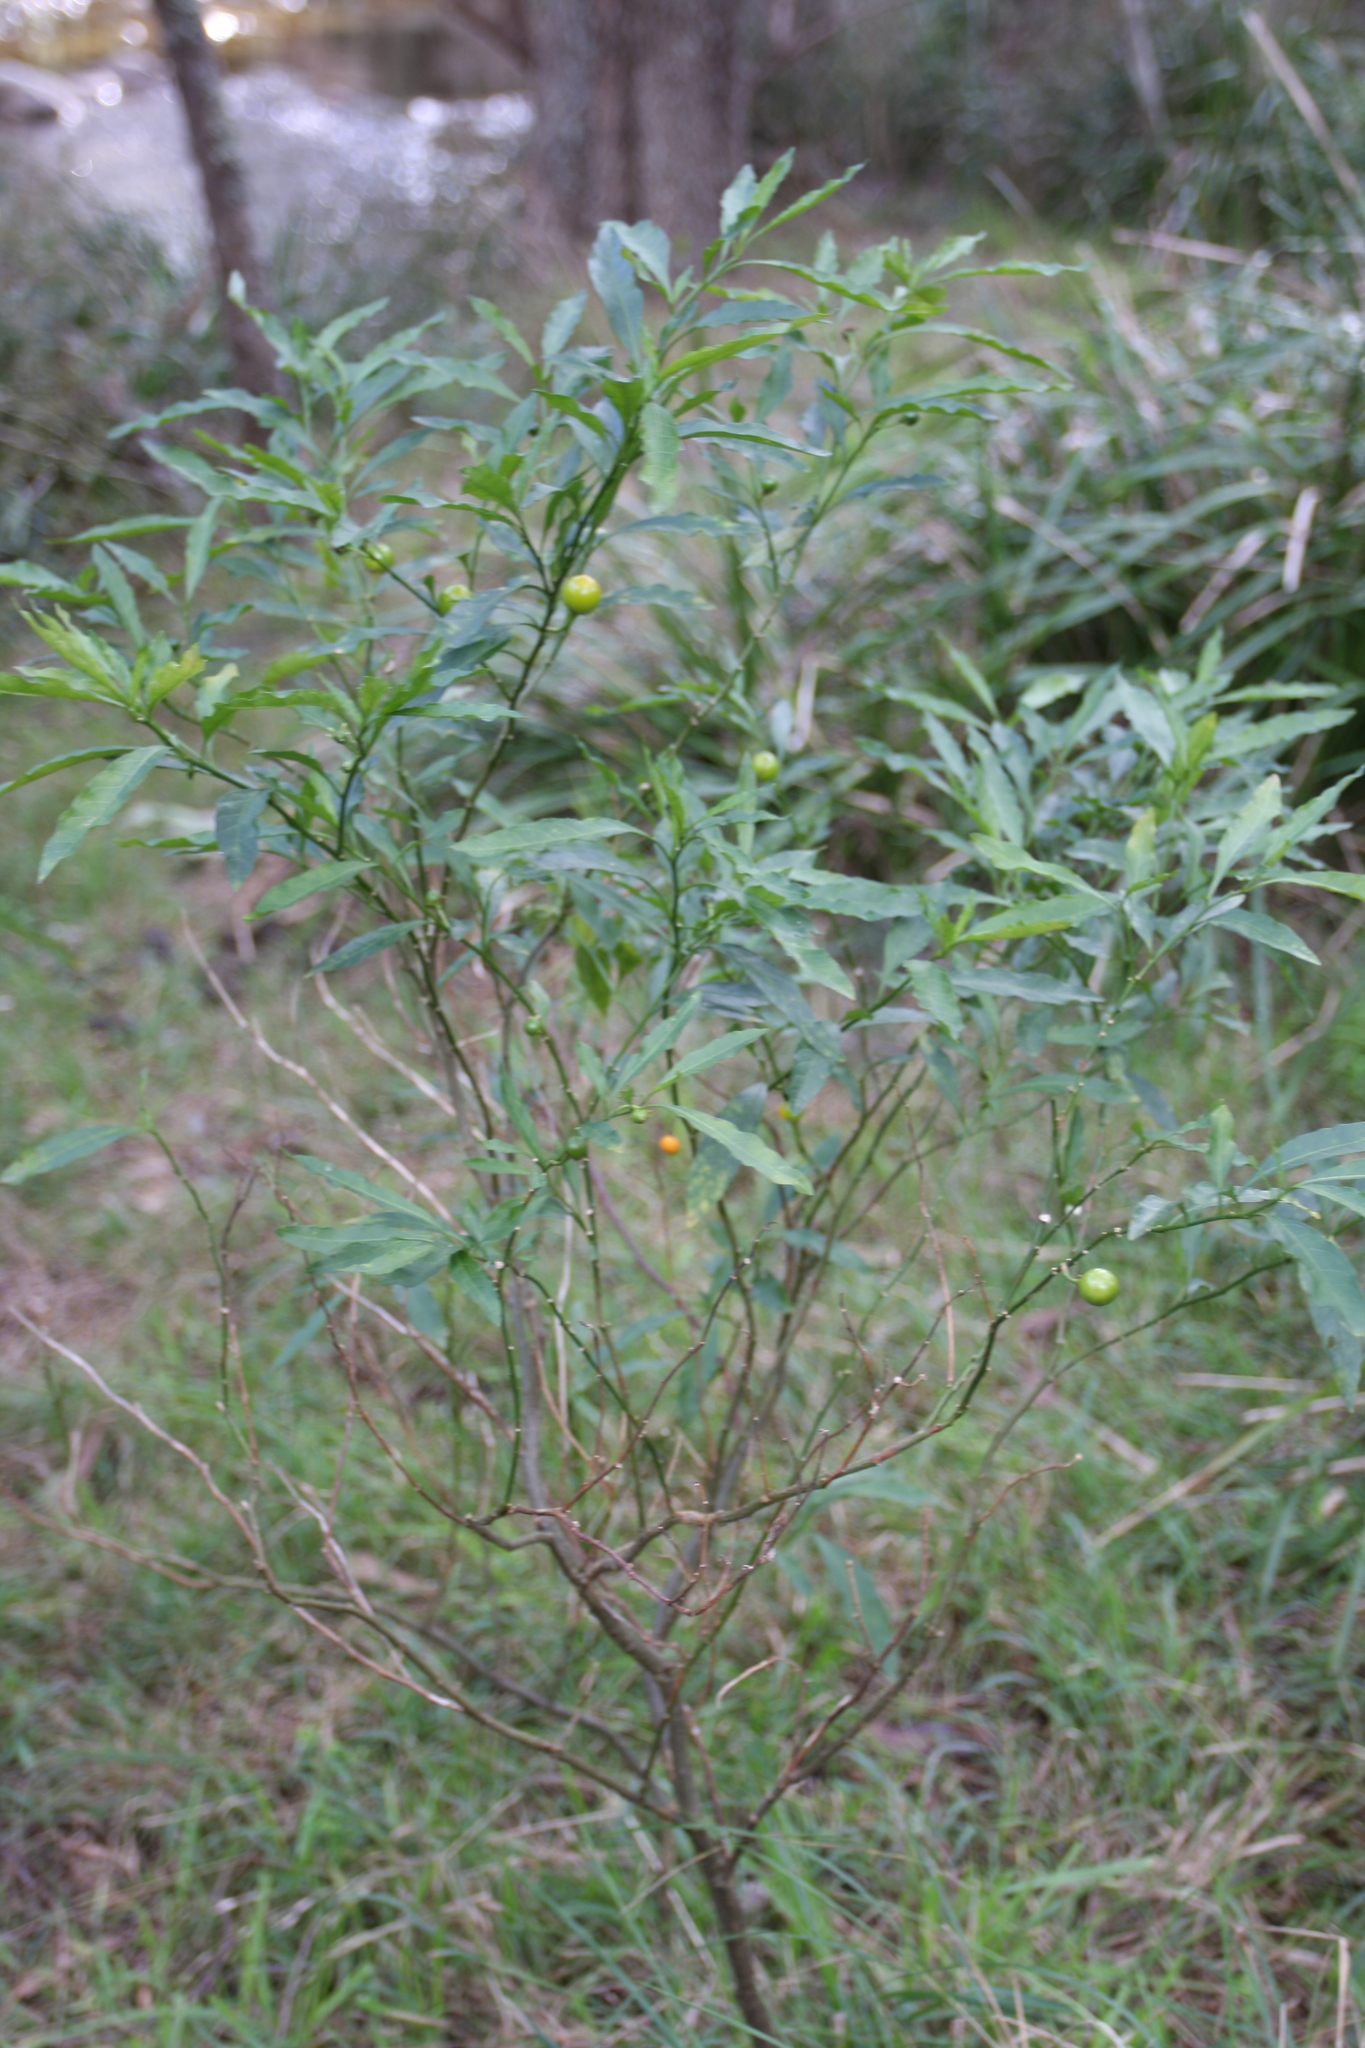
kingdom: Plantae
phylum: Tracheophyta
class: Magnoliopsida
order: Solanales
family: Solanaceae
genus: Solanum
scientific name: Solanum pseudocapsicum
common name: Jerusalem cherry
